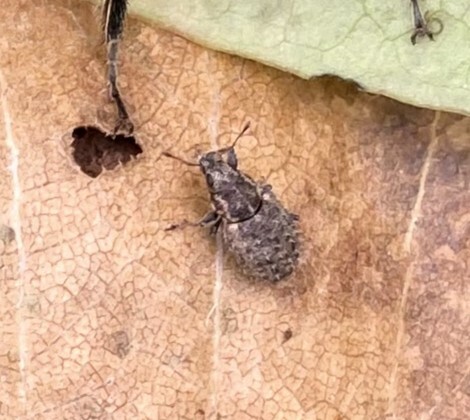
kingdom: Animalia
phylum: Arthropoda
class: Insecta
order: Coleoptera
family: Curculionidae
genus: Sitona
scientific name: Sitona hispidulus
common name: Clover weevil
